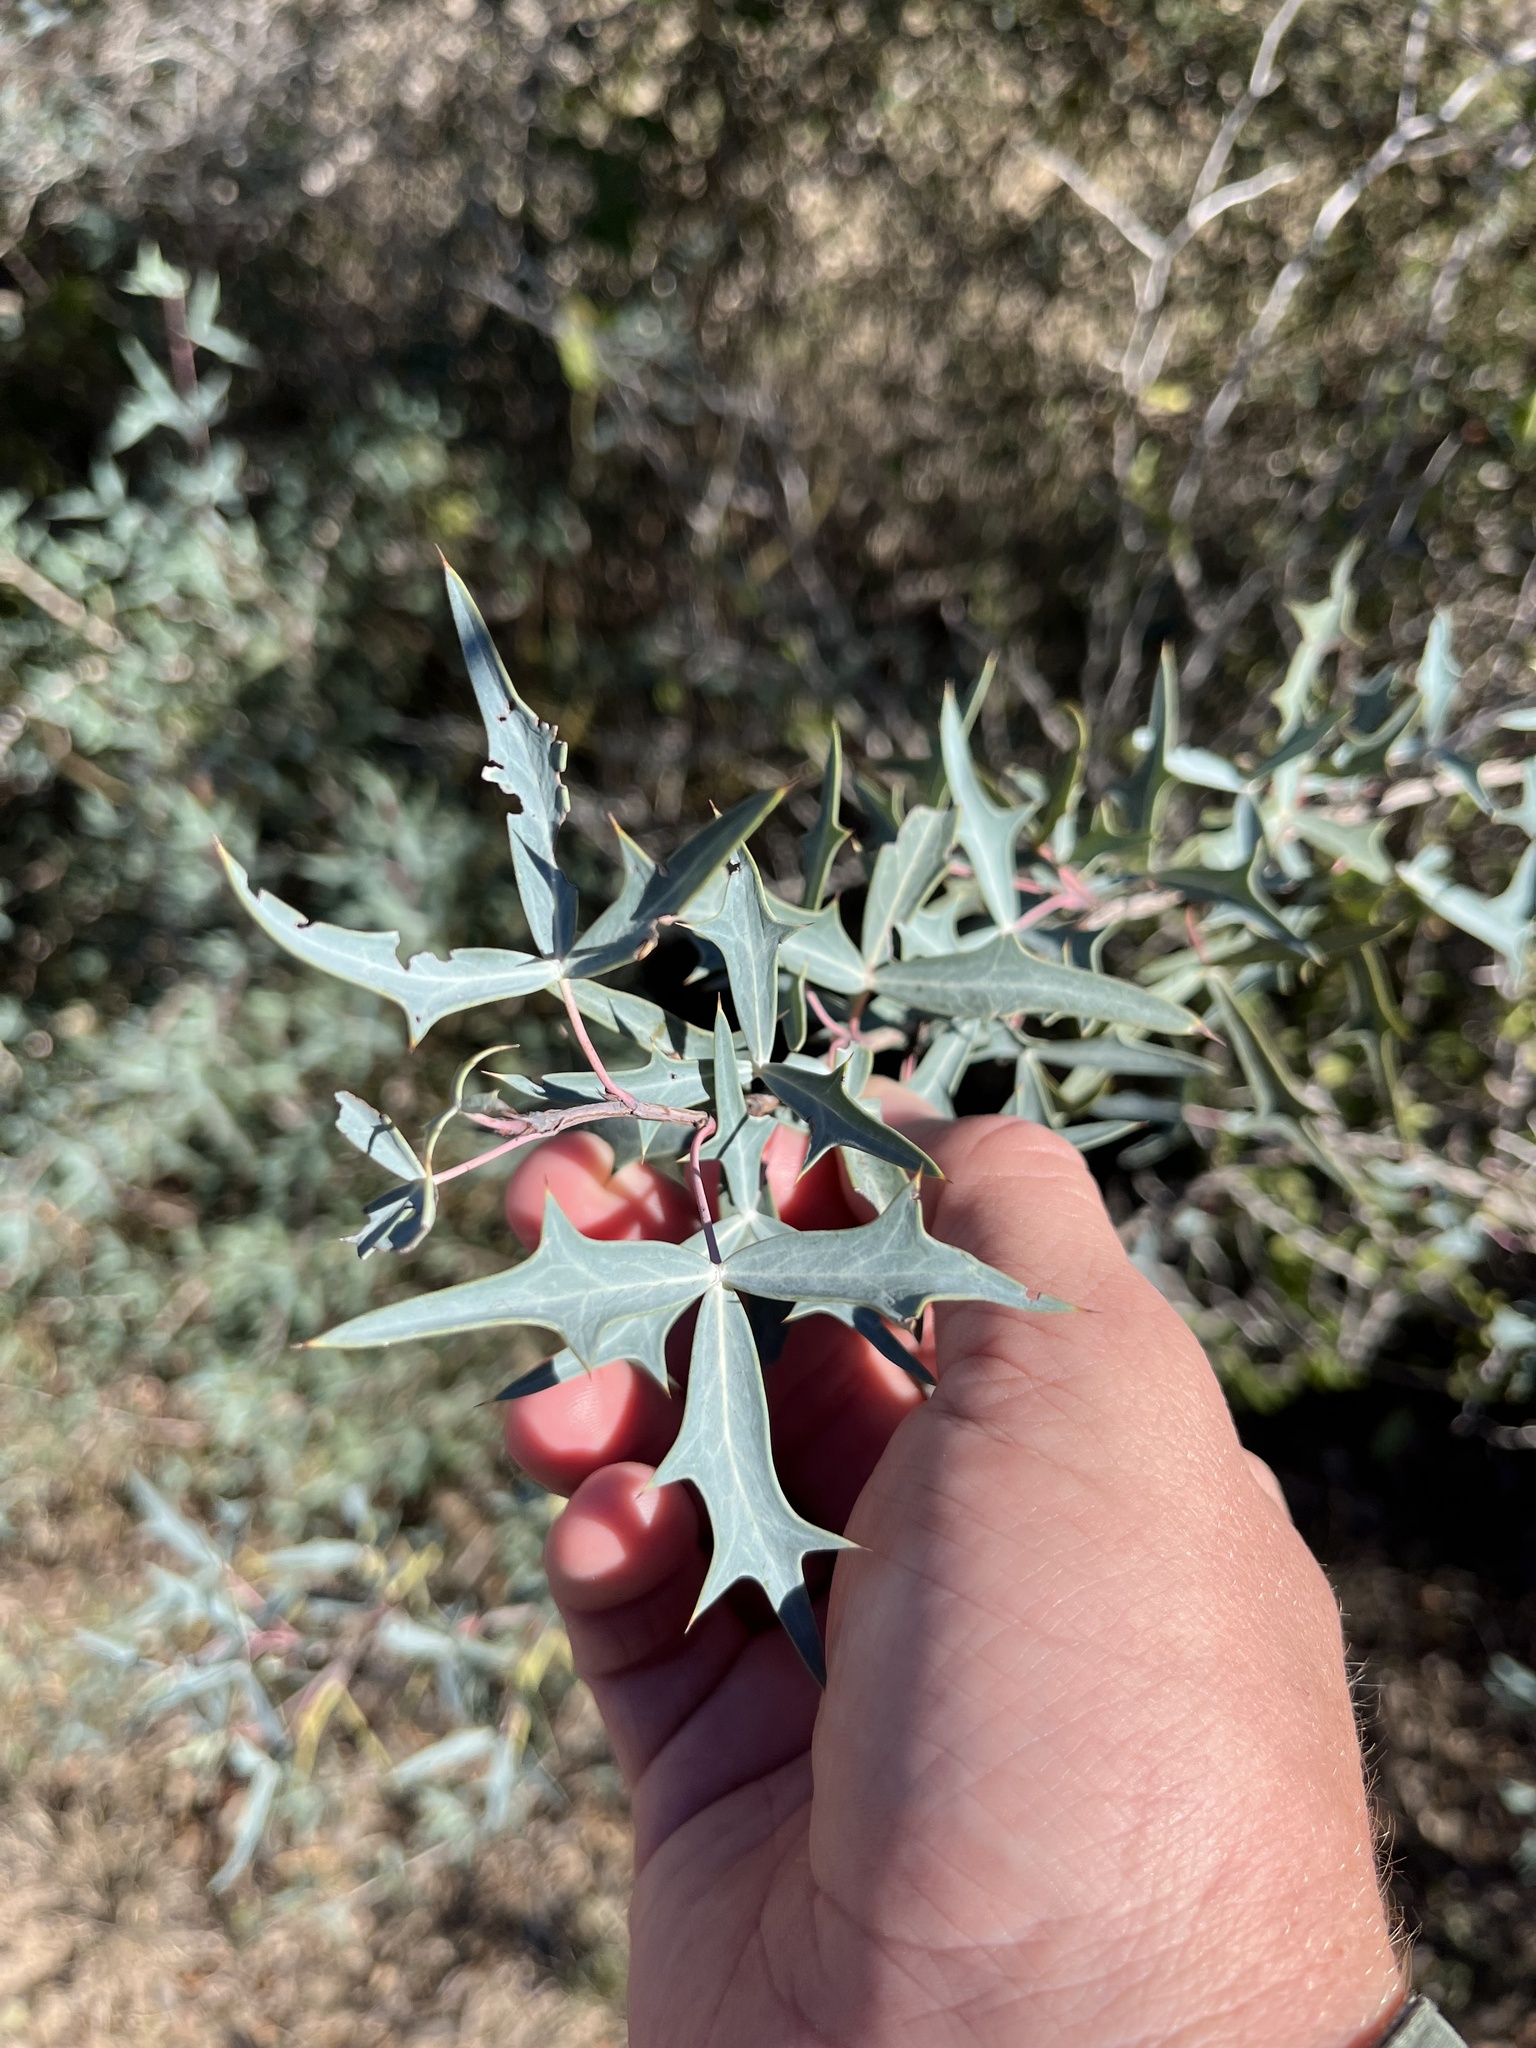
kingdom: Plantae
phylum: Tracheophyta
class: Magnoliopsida
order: Ranunculales
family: Berberidaceae
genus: Alloberberis
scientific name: Alloberberis trifoliolata
